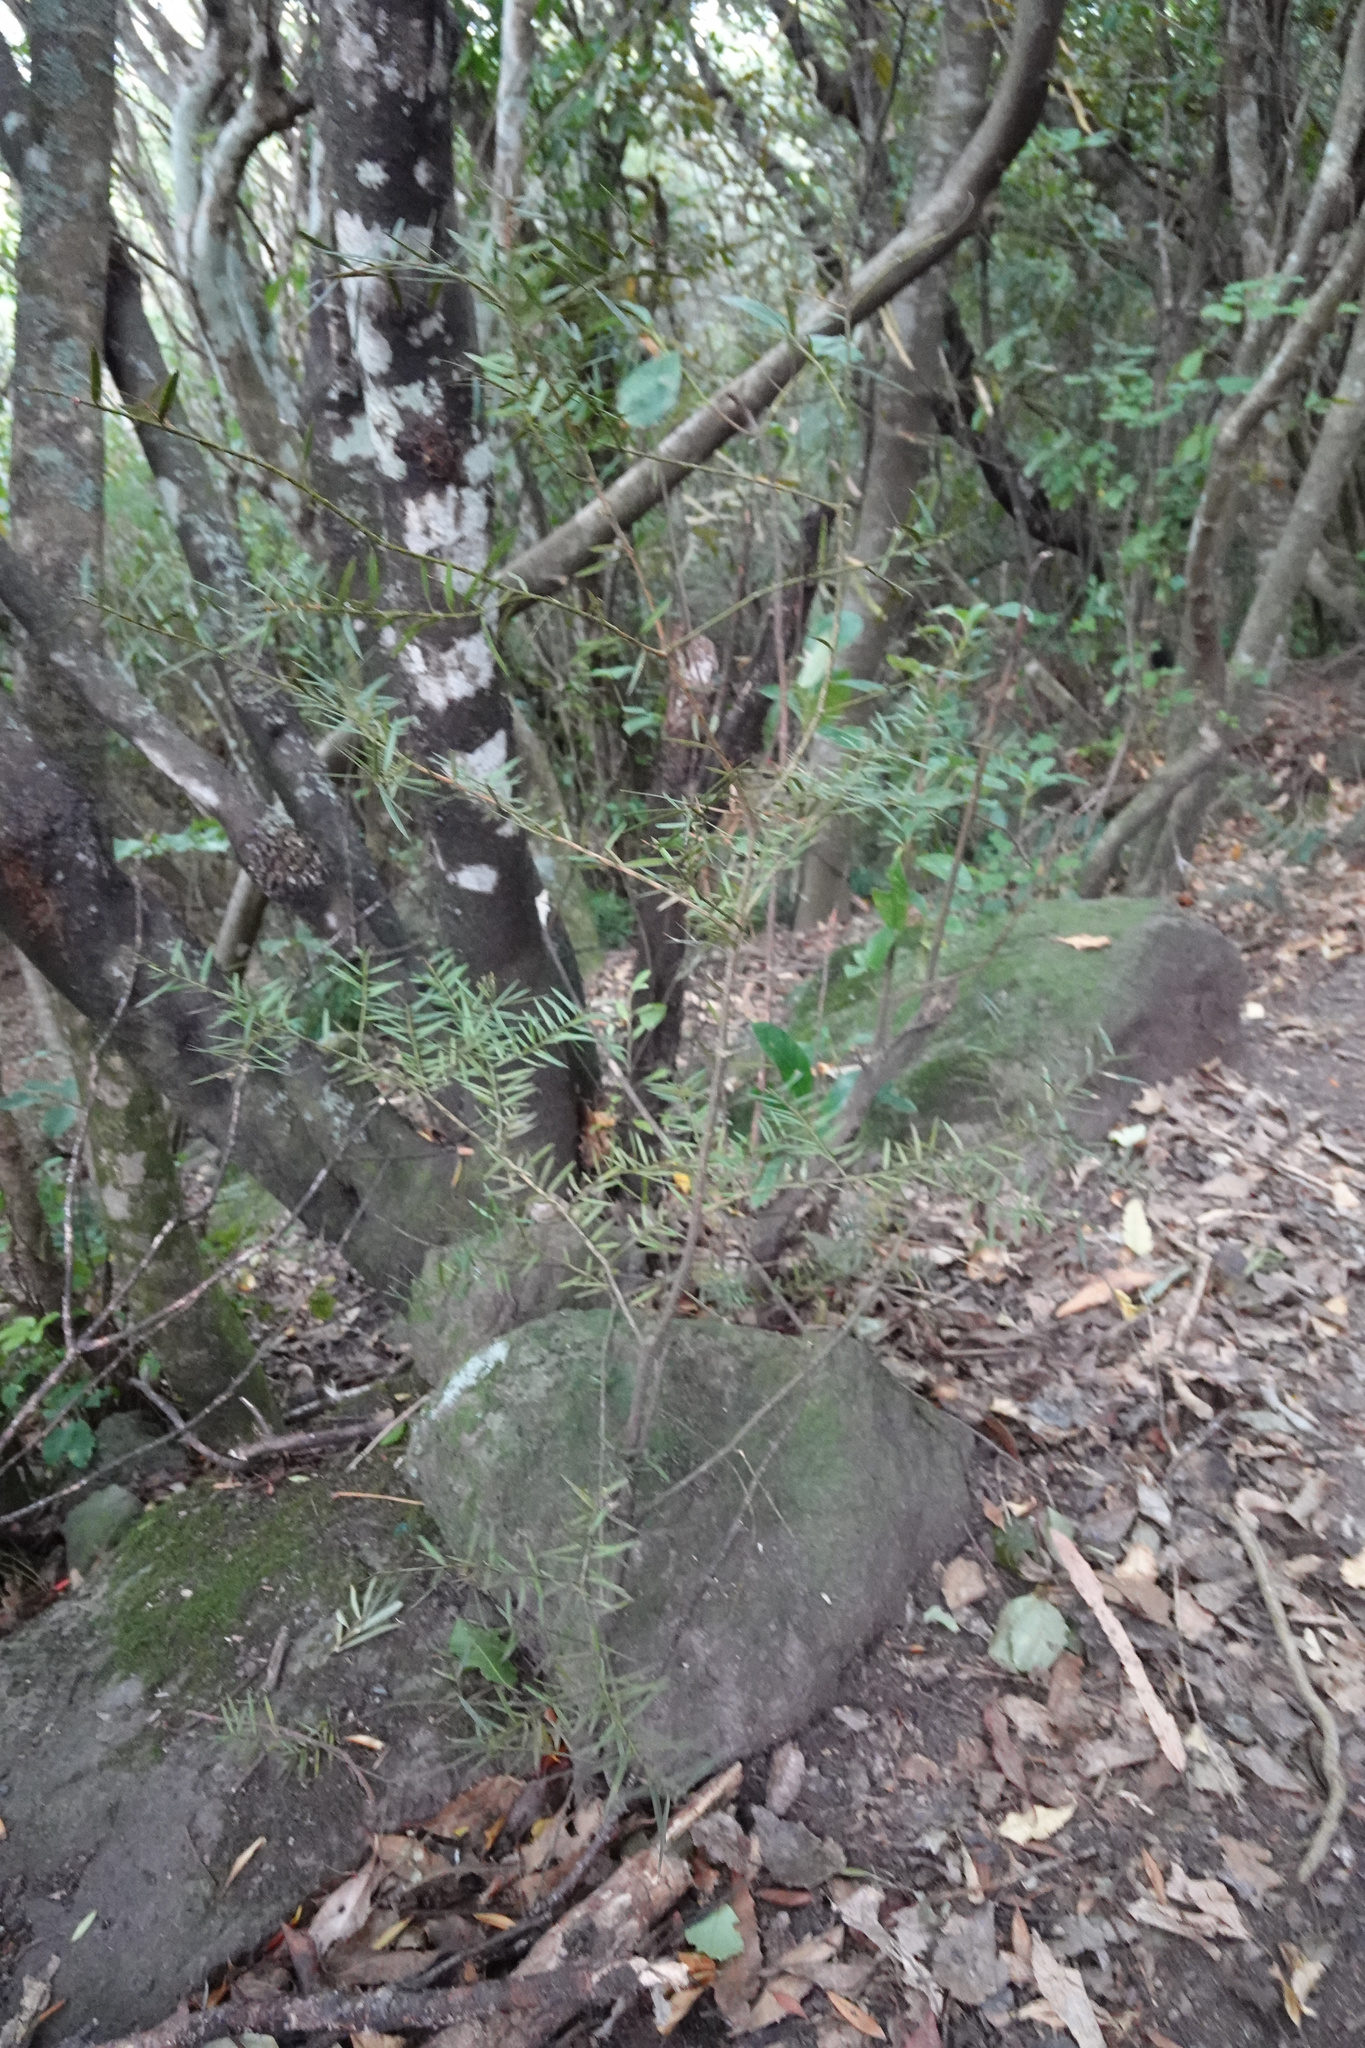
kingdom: Plantae
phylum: Tracheophyta
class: Pinopsida
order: Pinales
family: Podocarpaceae
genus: Podocarpus
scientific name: Podocarpus totara
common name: Totara
